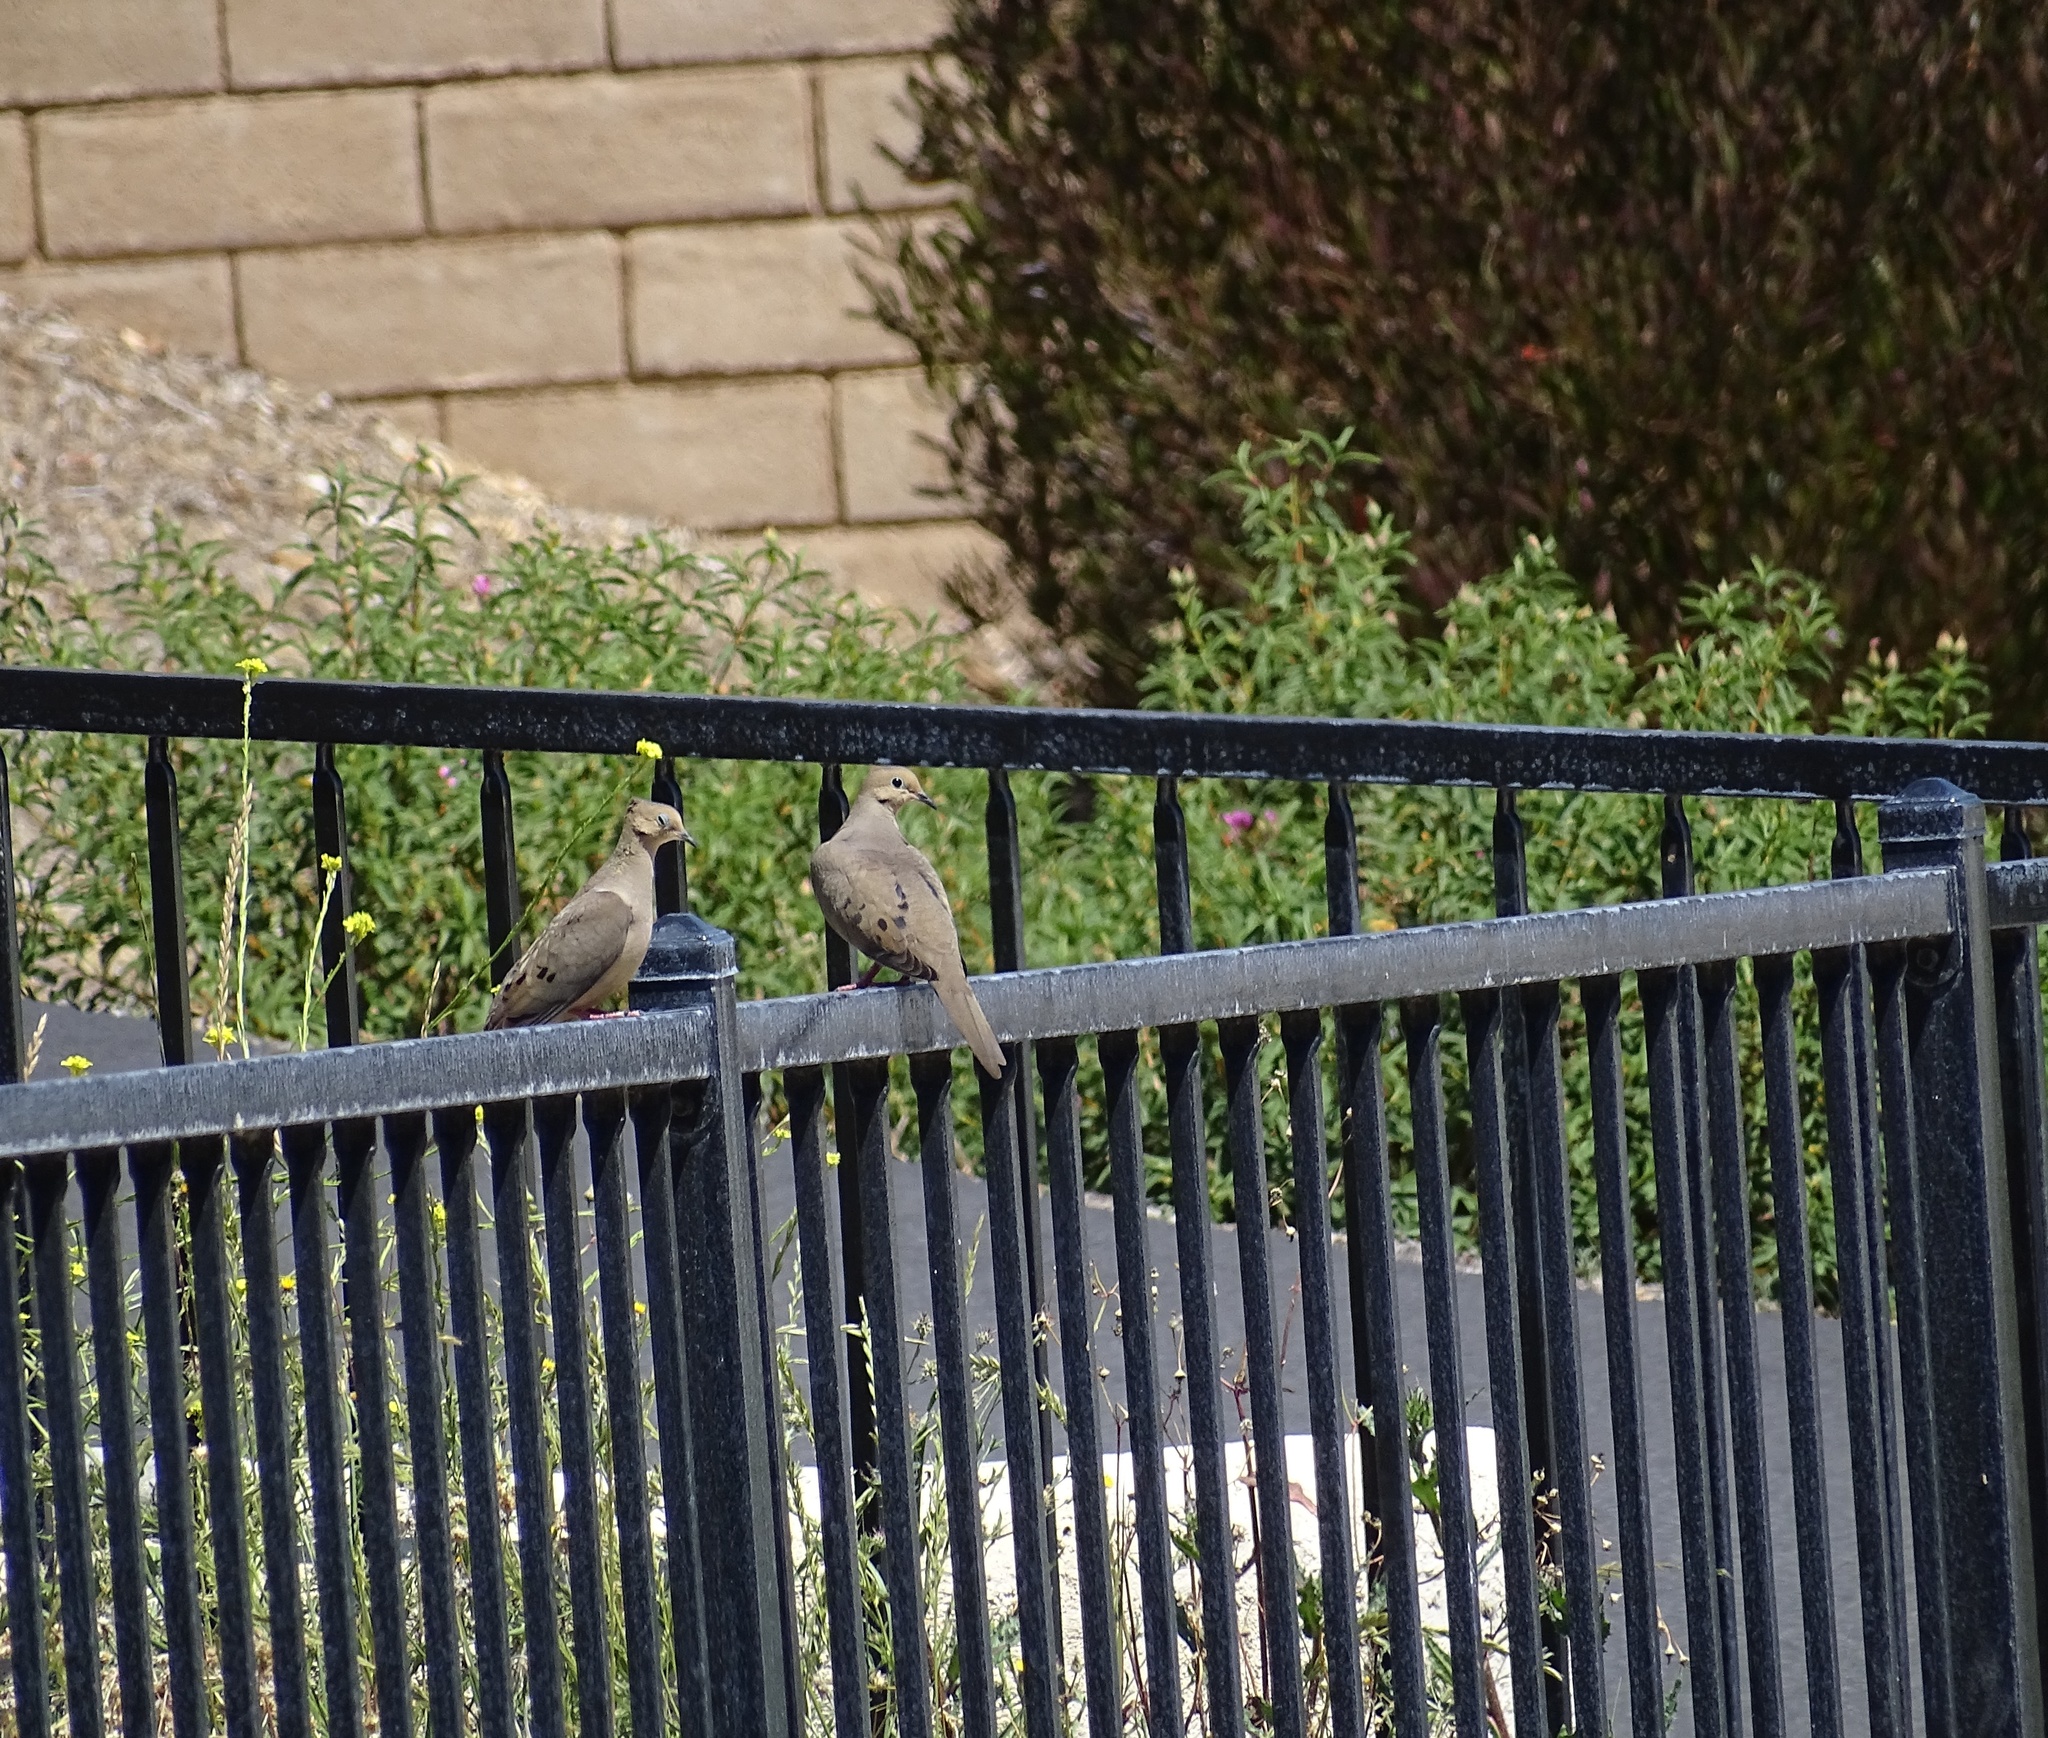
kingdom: Animalia
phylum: Chordata
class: Aves
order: Columbiformes
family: Columbidae
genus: Zenaida
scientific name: Zenaida macroura
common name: Mourning dove
